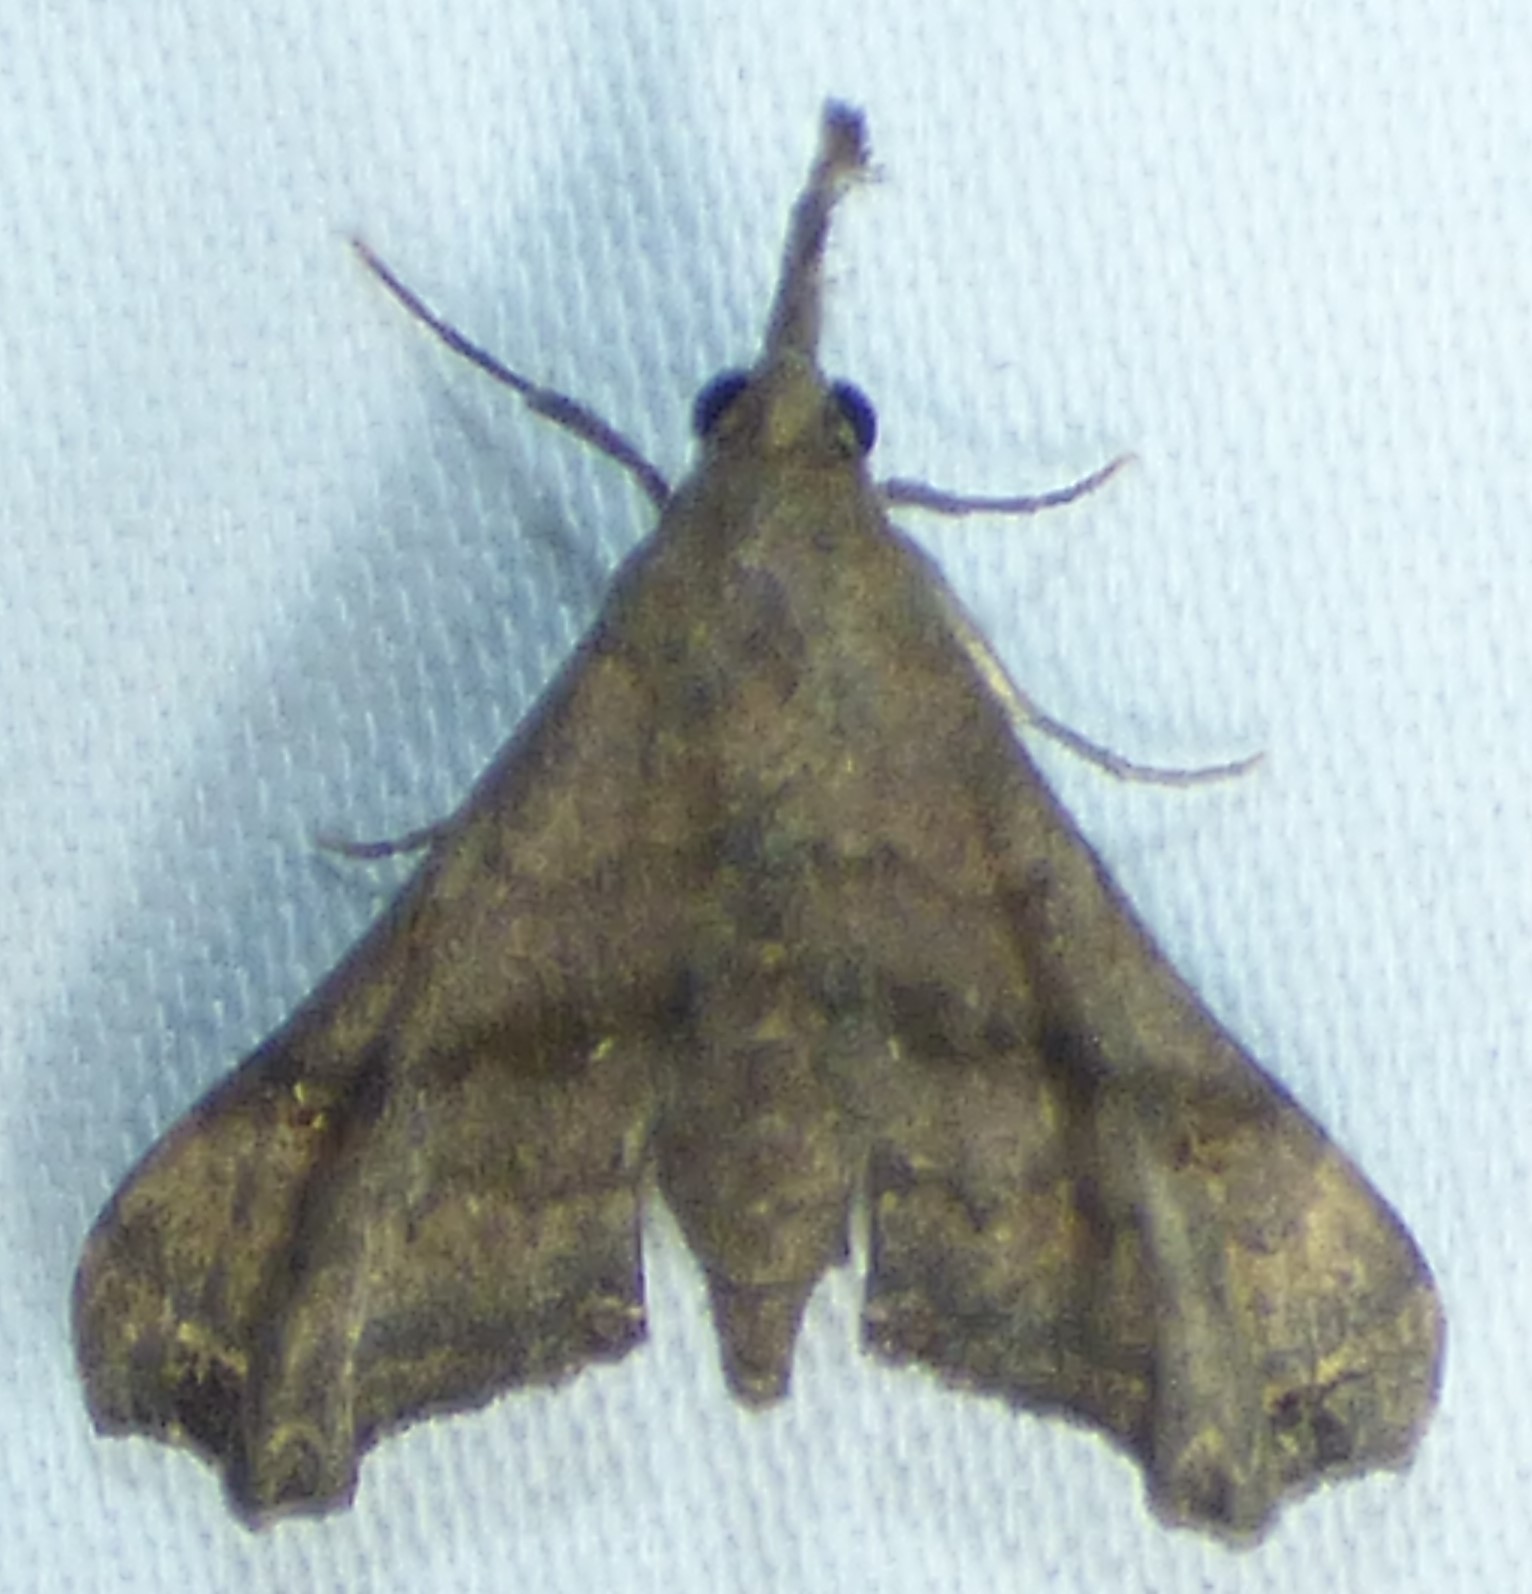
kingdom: Animalia
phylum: Arthropoda
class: Insecta
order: Lepidoptera
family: Erebidae
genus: Palthis
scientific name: Palthis asopialis
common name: Faint-spotted palthis moth
